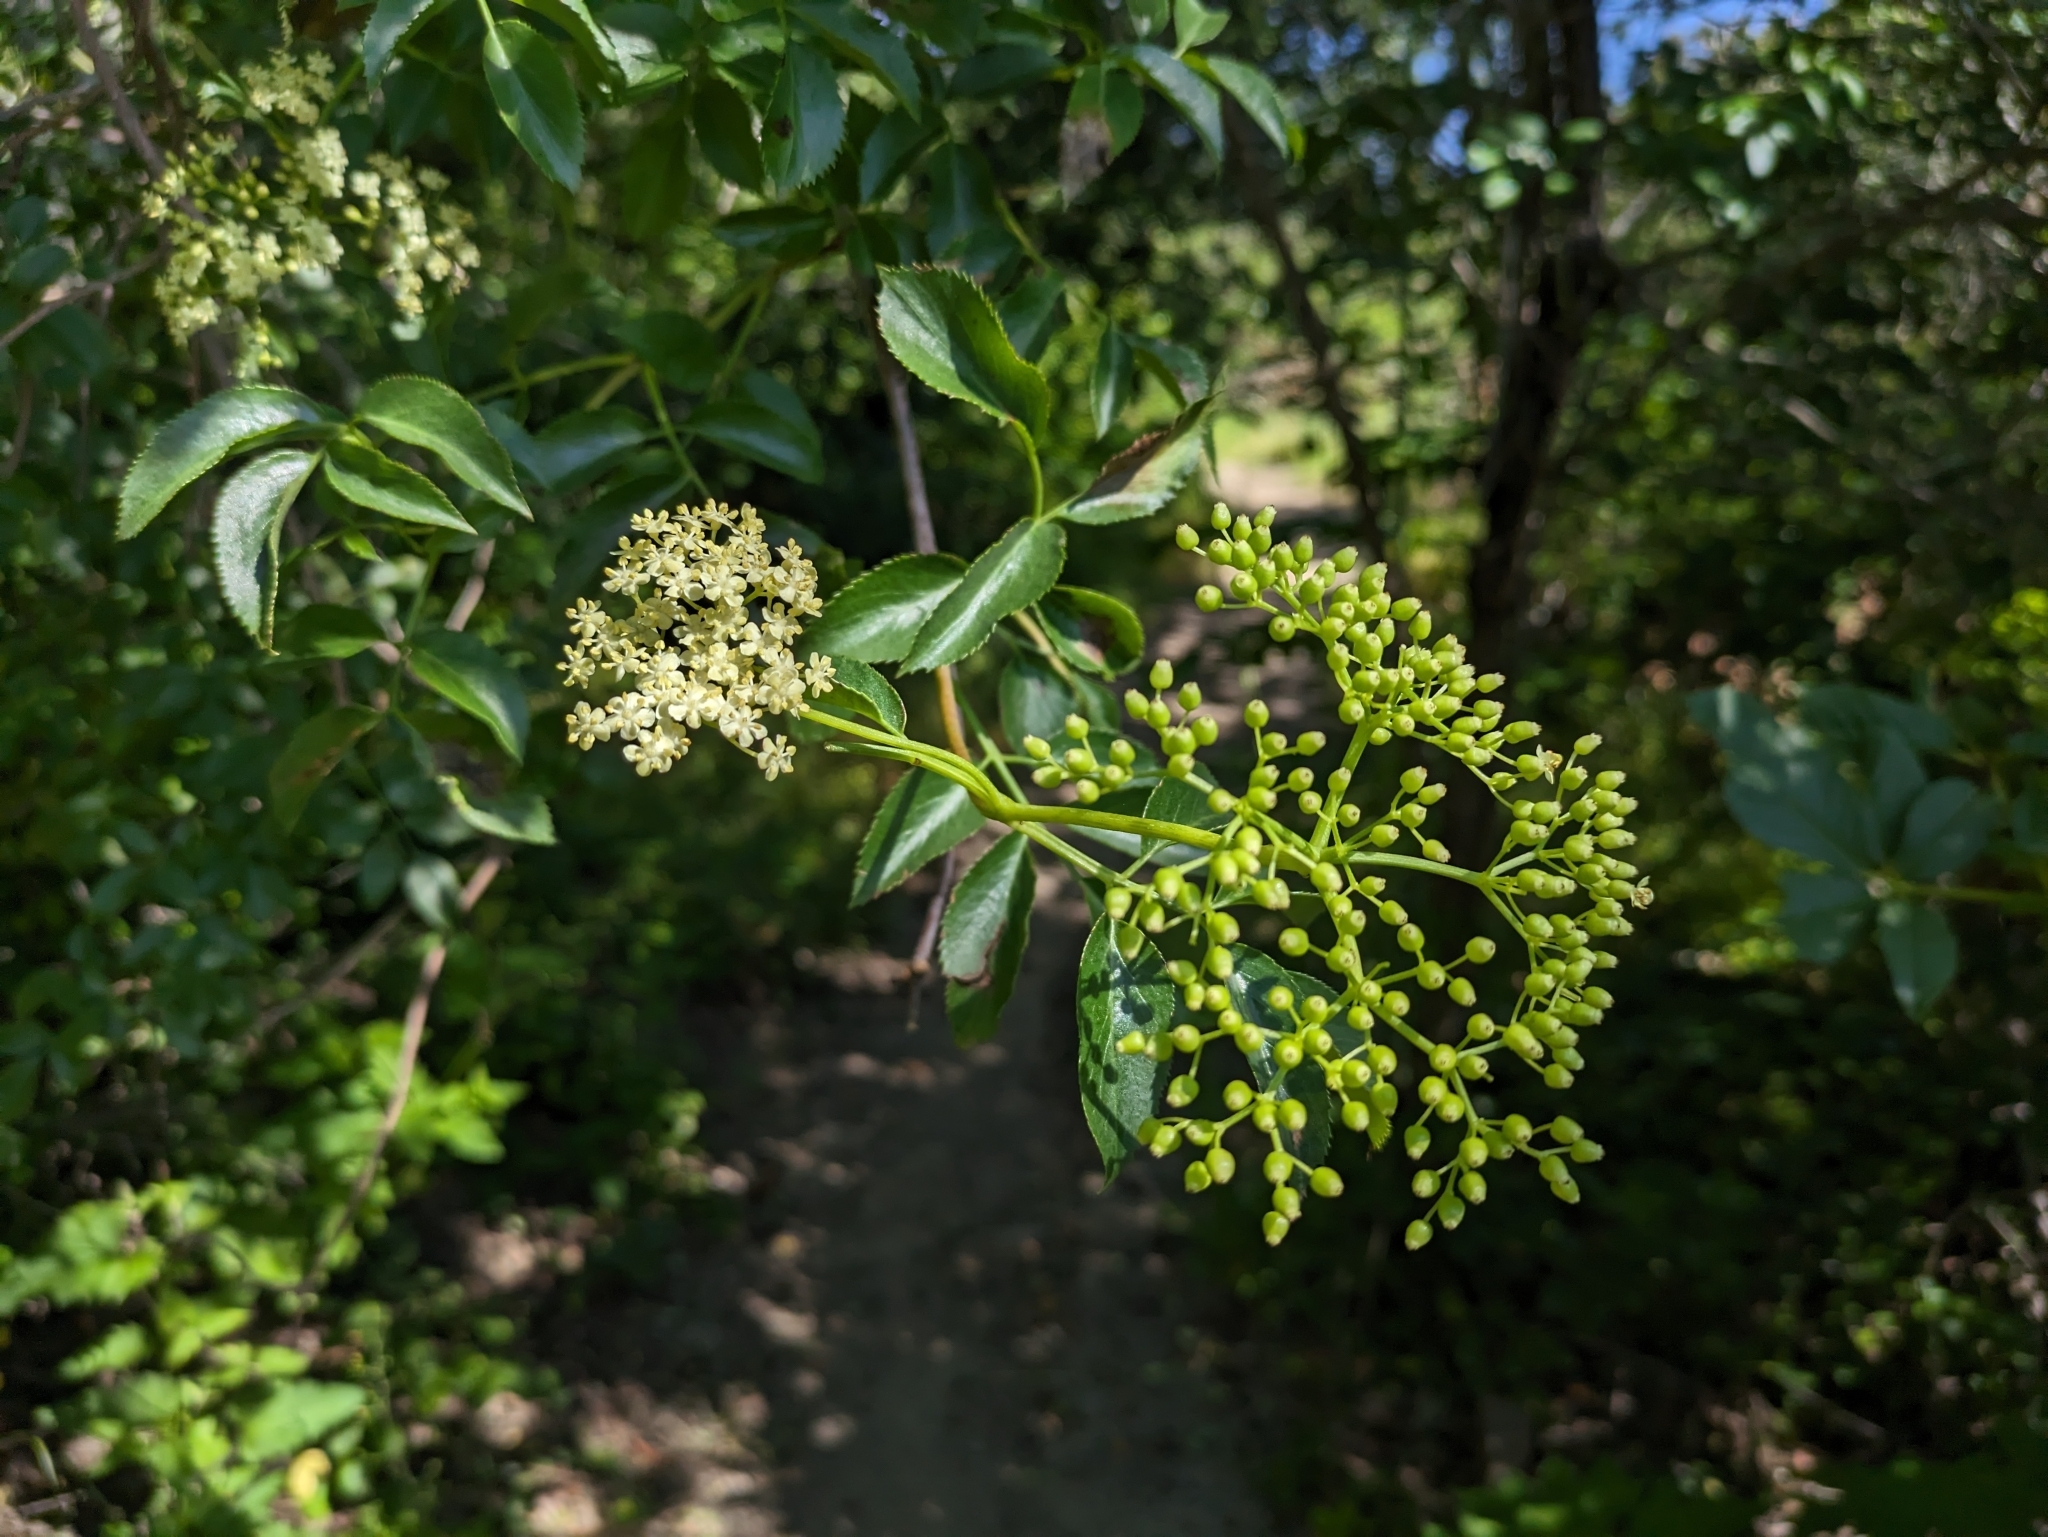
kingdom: Plantae
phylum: Tracheophyta
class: Magnoliopsida
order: Dipsacales
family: Viburnaceae
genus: Sambucus
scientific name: Sambucus cerulea
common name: Blue elder
